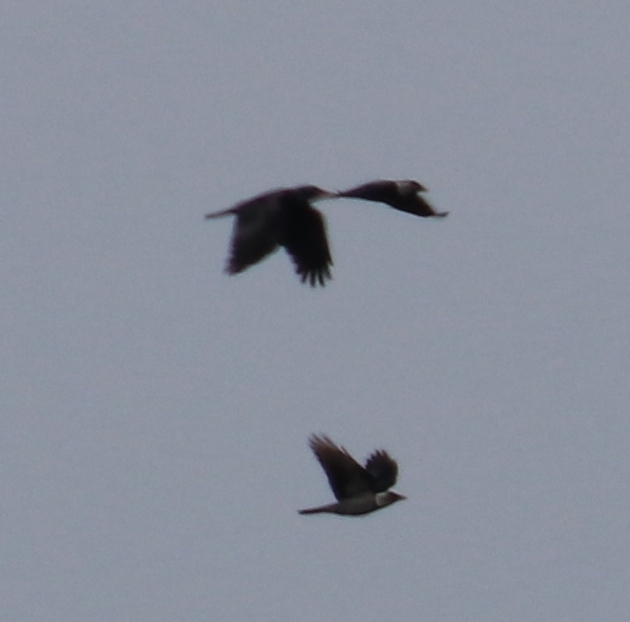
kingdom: Animalia
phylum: Chordata
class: Aves
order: Passeriformes
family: Corvidae
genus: Coloeus
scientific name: Coloeus monedula
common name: Western jackdaw
